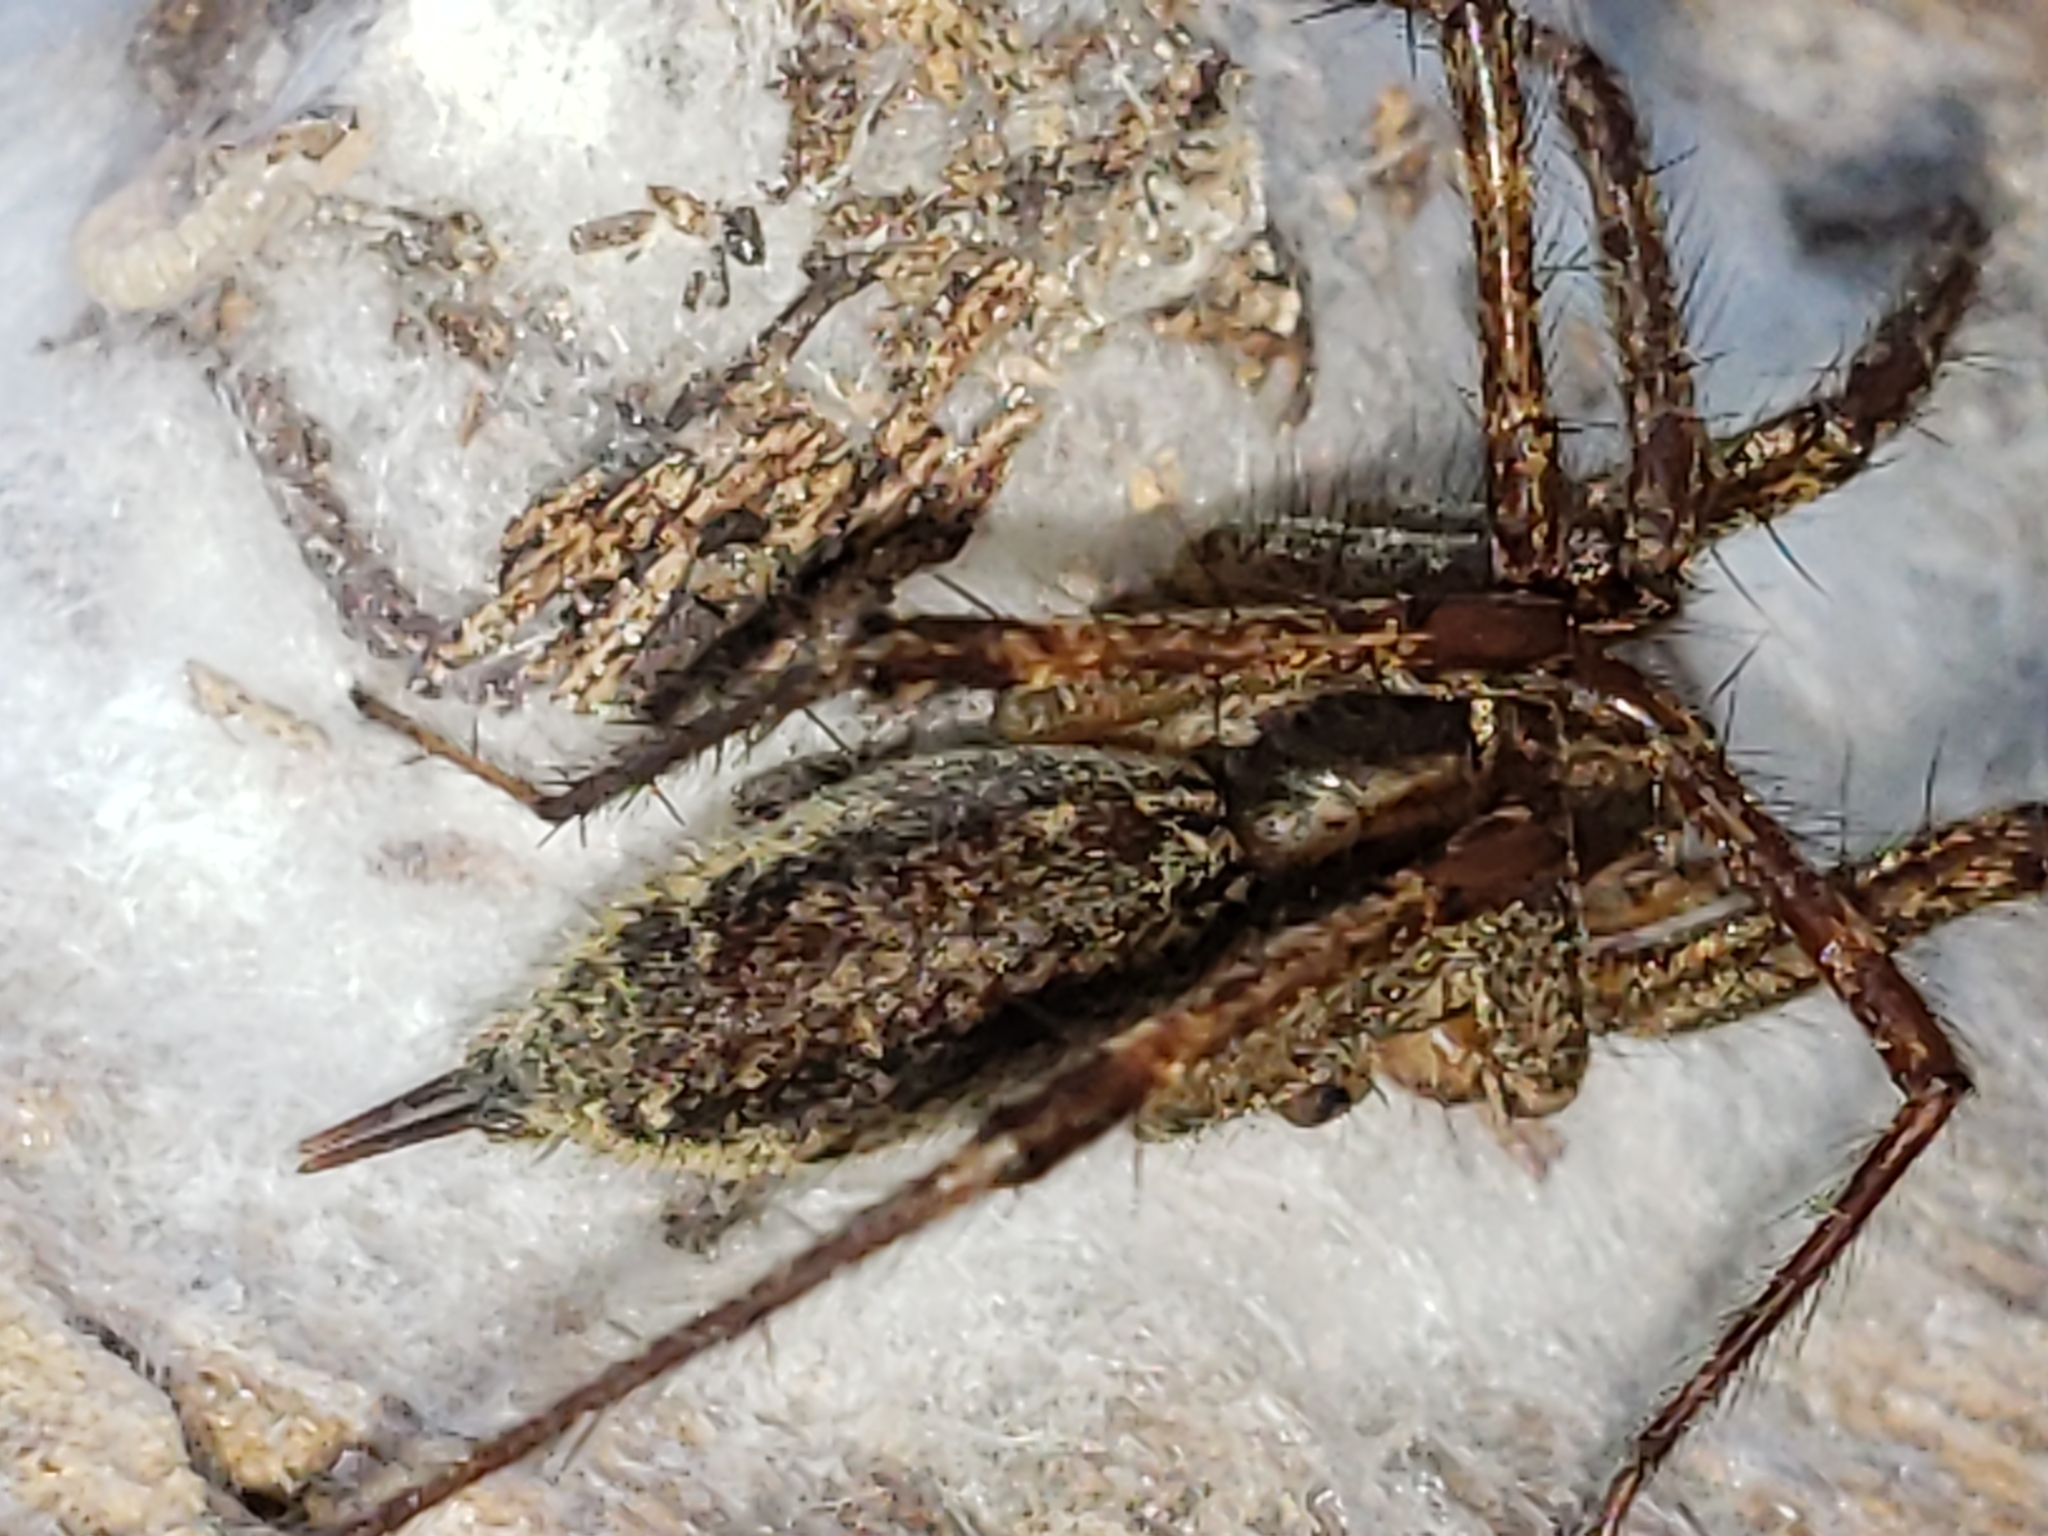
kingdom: Animalia
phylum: Arthropoda
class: Arachnida
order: Araneae
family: Agelenidae
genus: Agelenopsis
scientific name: Agelenopsis
